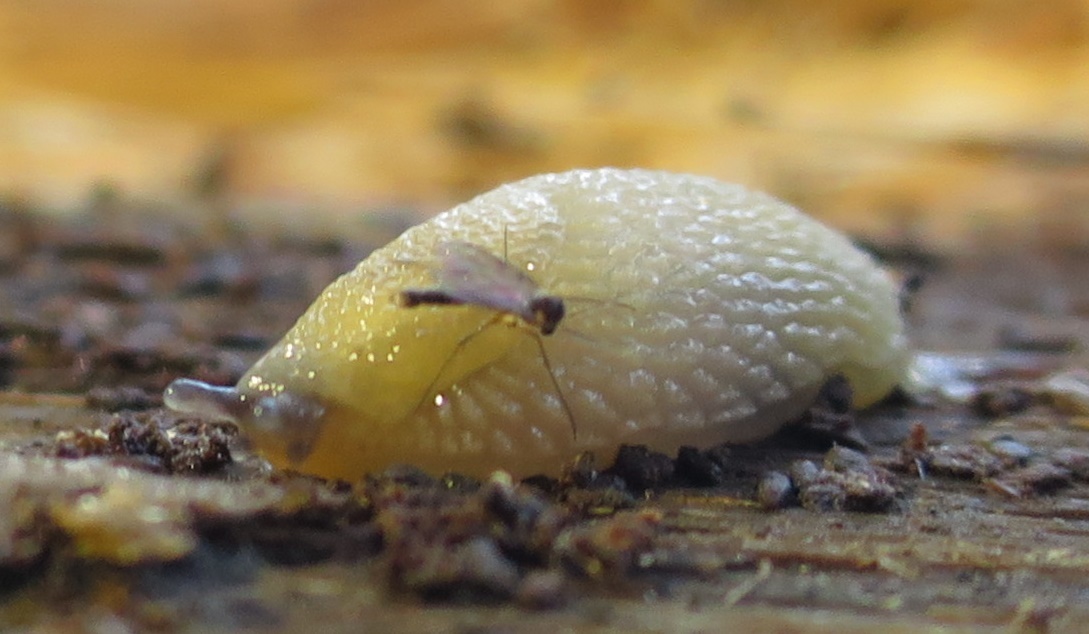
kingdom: Animalia
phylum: Mollusca
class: Gastropoda
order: Stylommatophora
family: Arionidae
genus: Arion
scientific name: Arion intermedius
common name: Hedgehog slug
